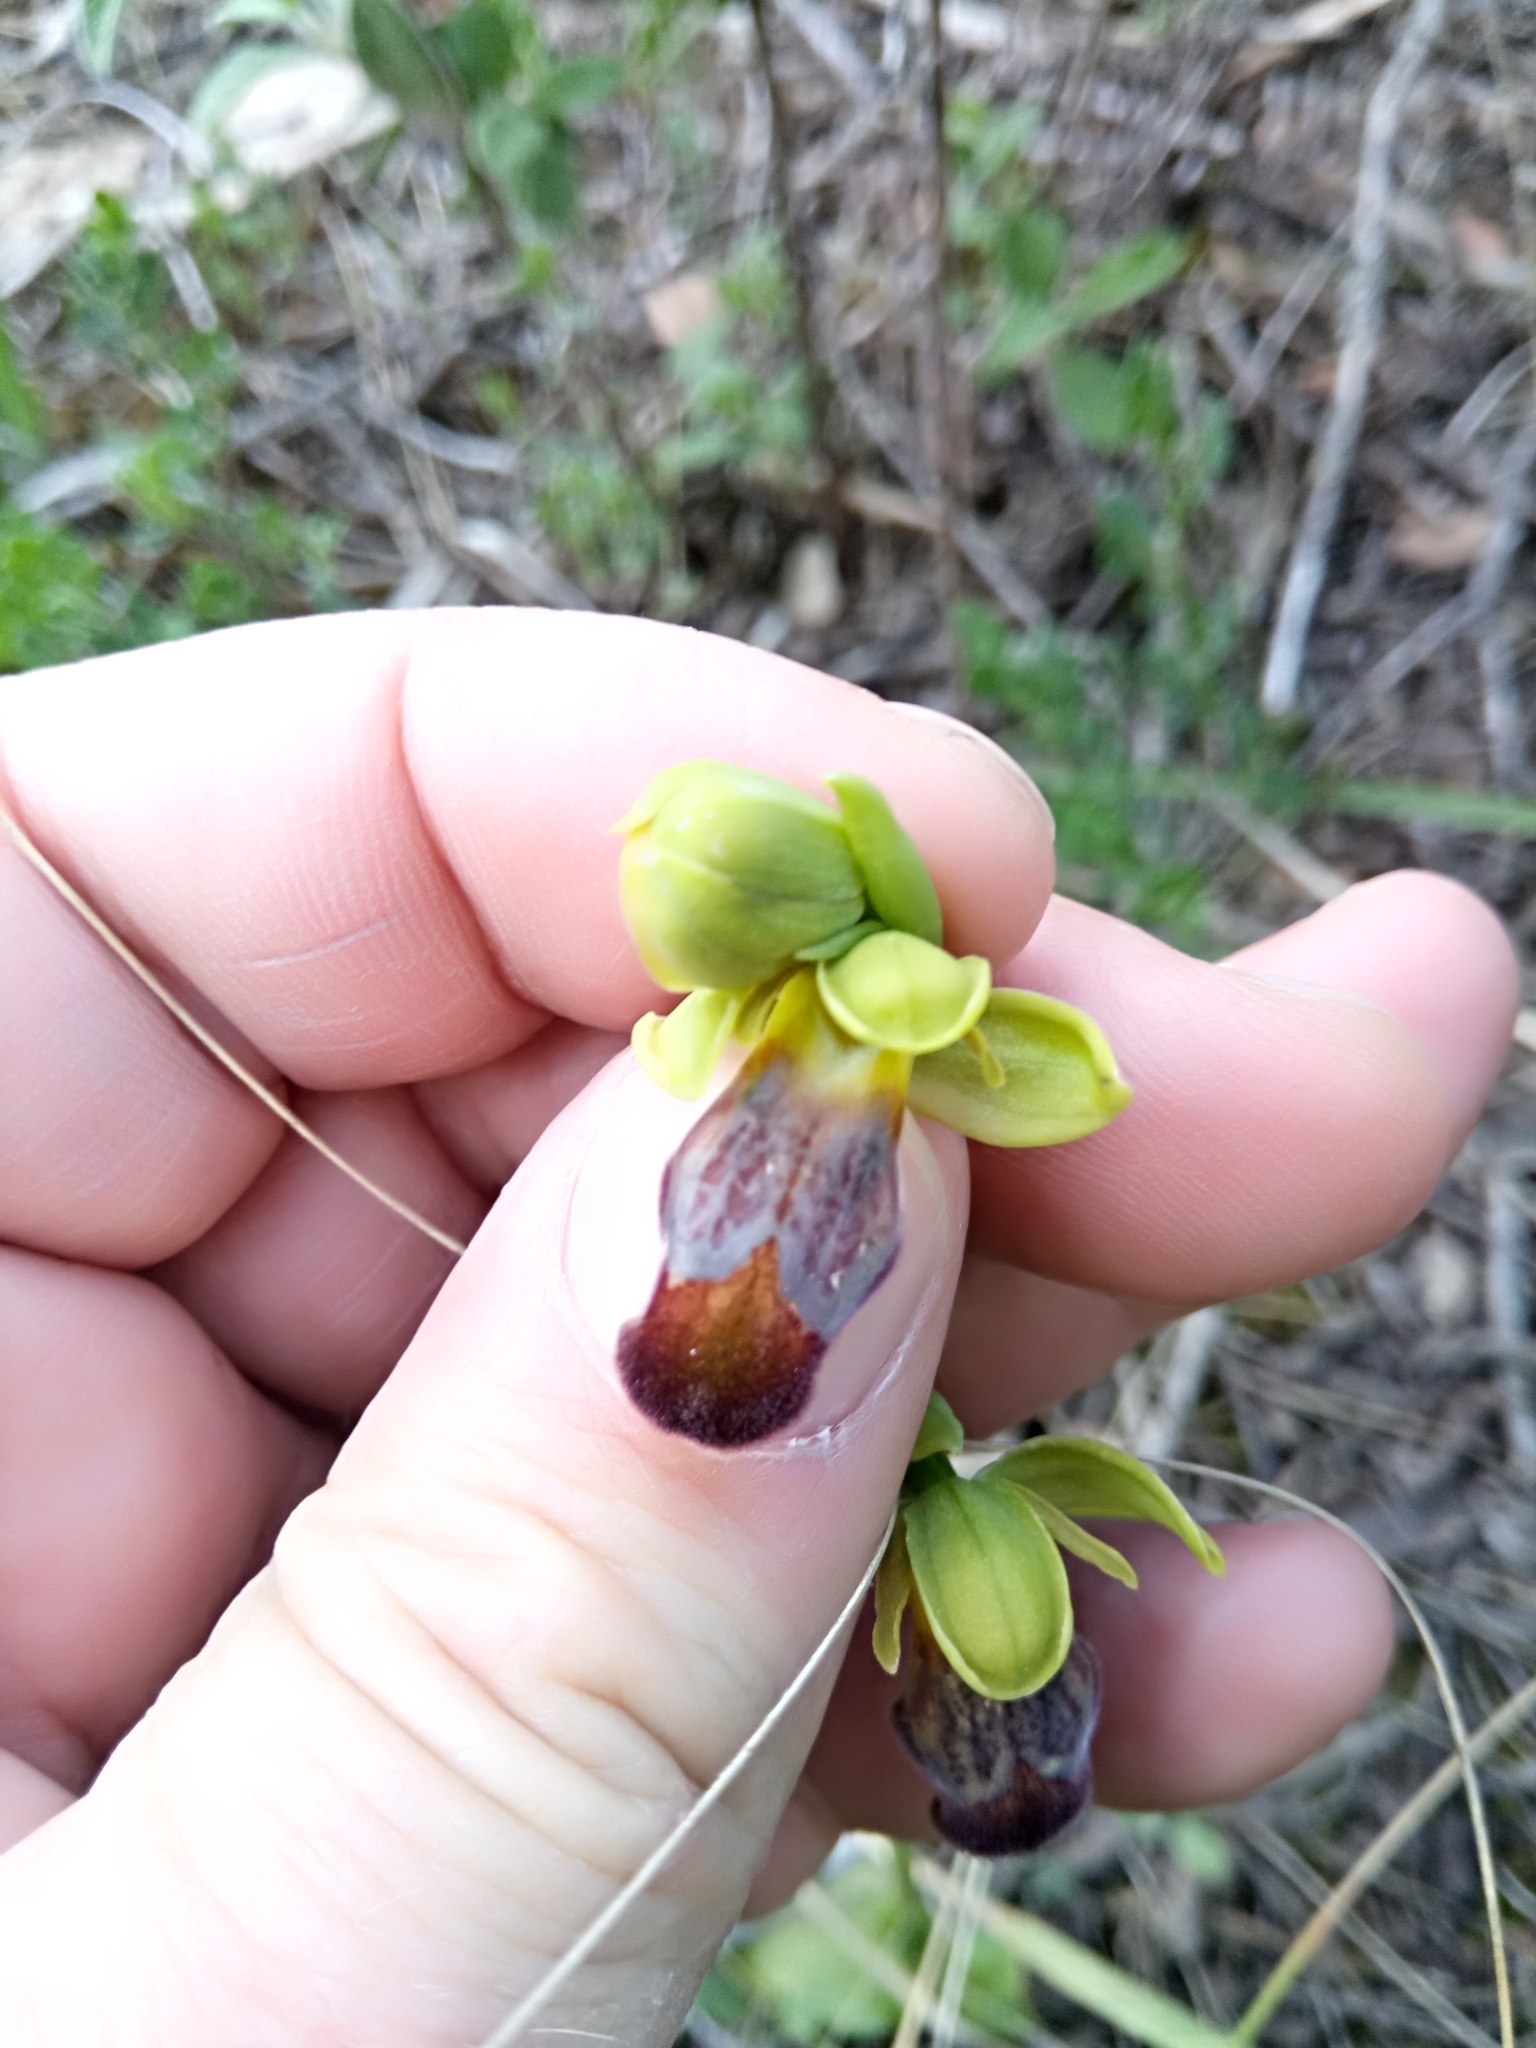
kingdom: Plantae
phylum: Tracheophyta
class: Liliopsida
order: Asparagales
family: Orchidaceae
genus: Ophrys
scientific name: Ophrys fusca
